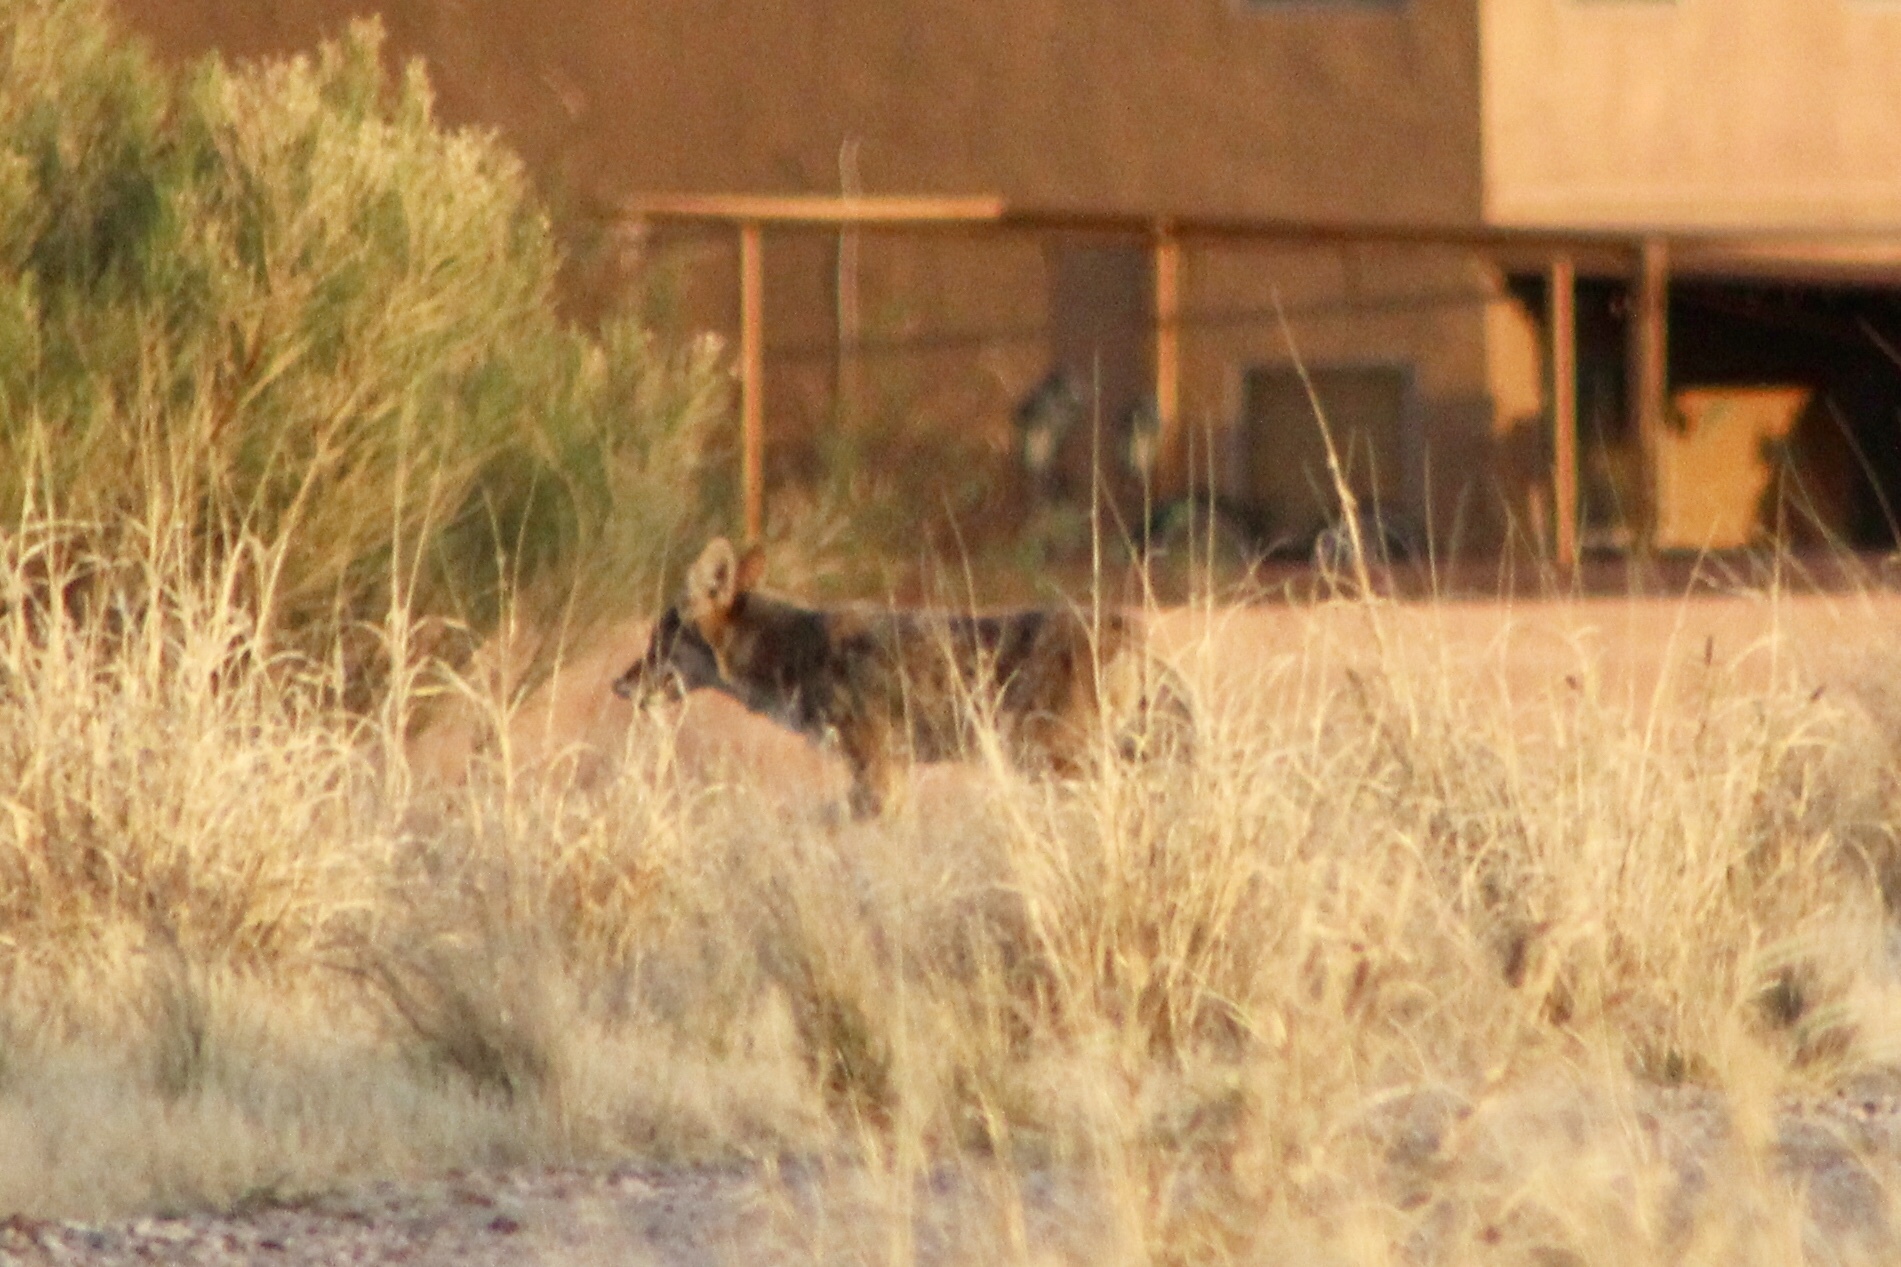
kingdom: Animalia
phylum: Chordata
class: Mammalia
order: Carnivora
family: Canidae
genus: Canis
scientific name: Canis latrans
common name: Coyote
